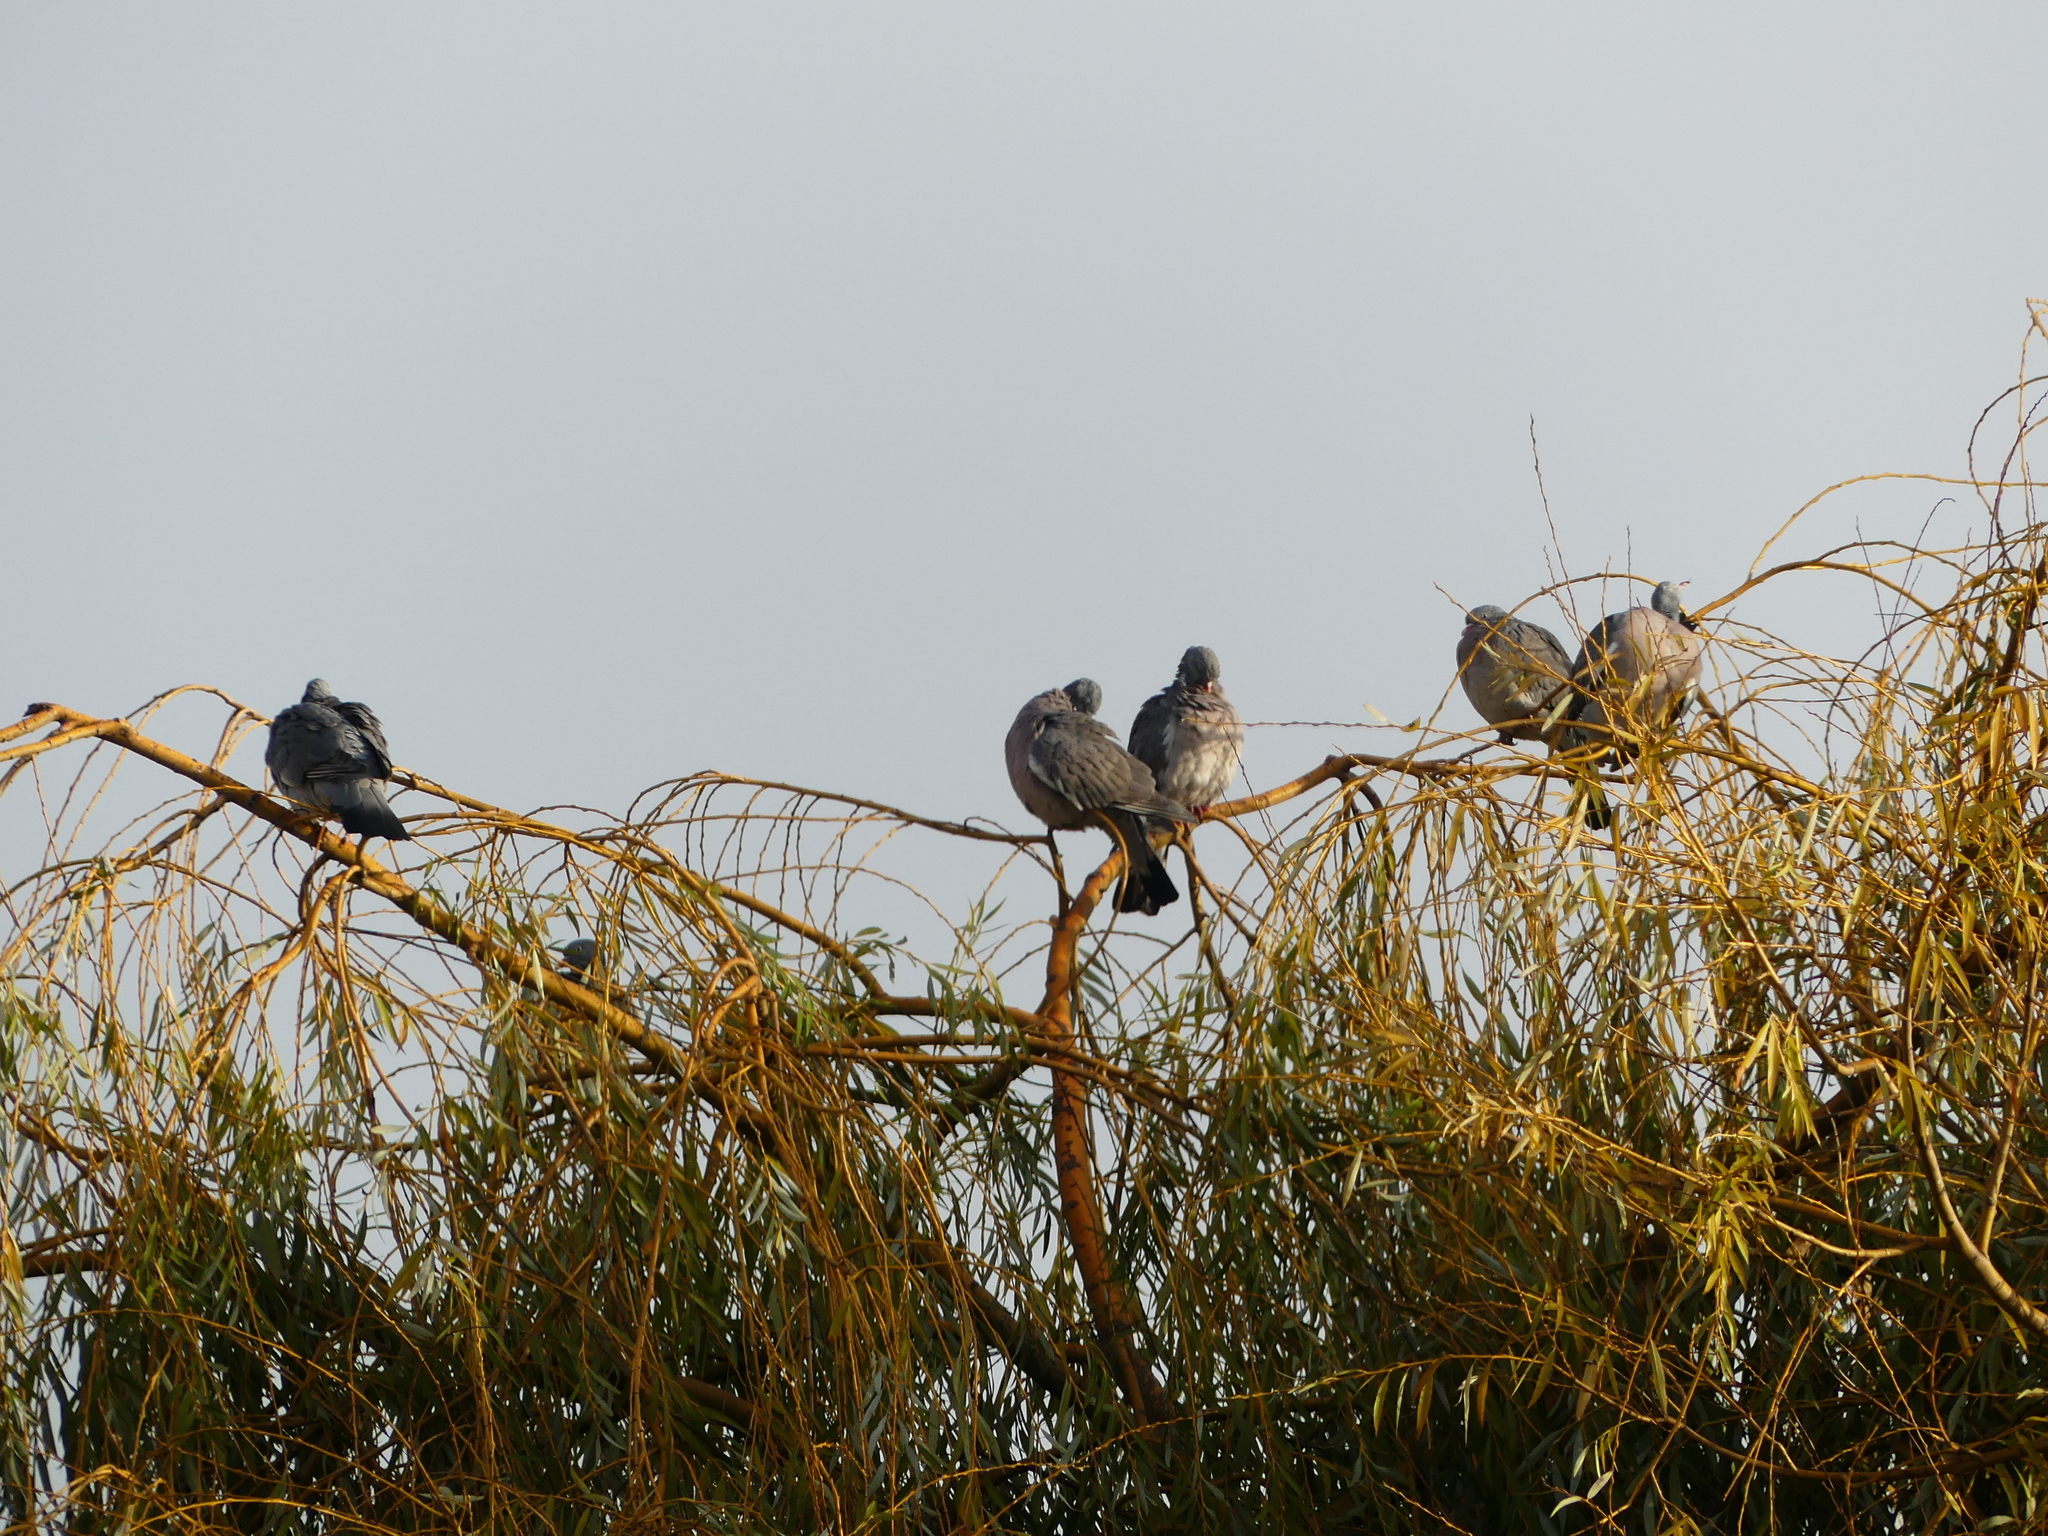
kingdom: Animalia
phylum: Chordata
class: Aves
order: Columbiformes
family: Columbidae
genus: Columba
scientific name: Columba palumbus
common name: Common wood pigeon
